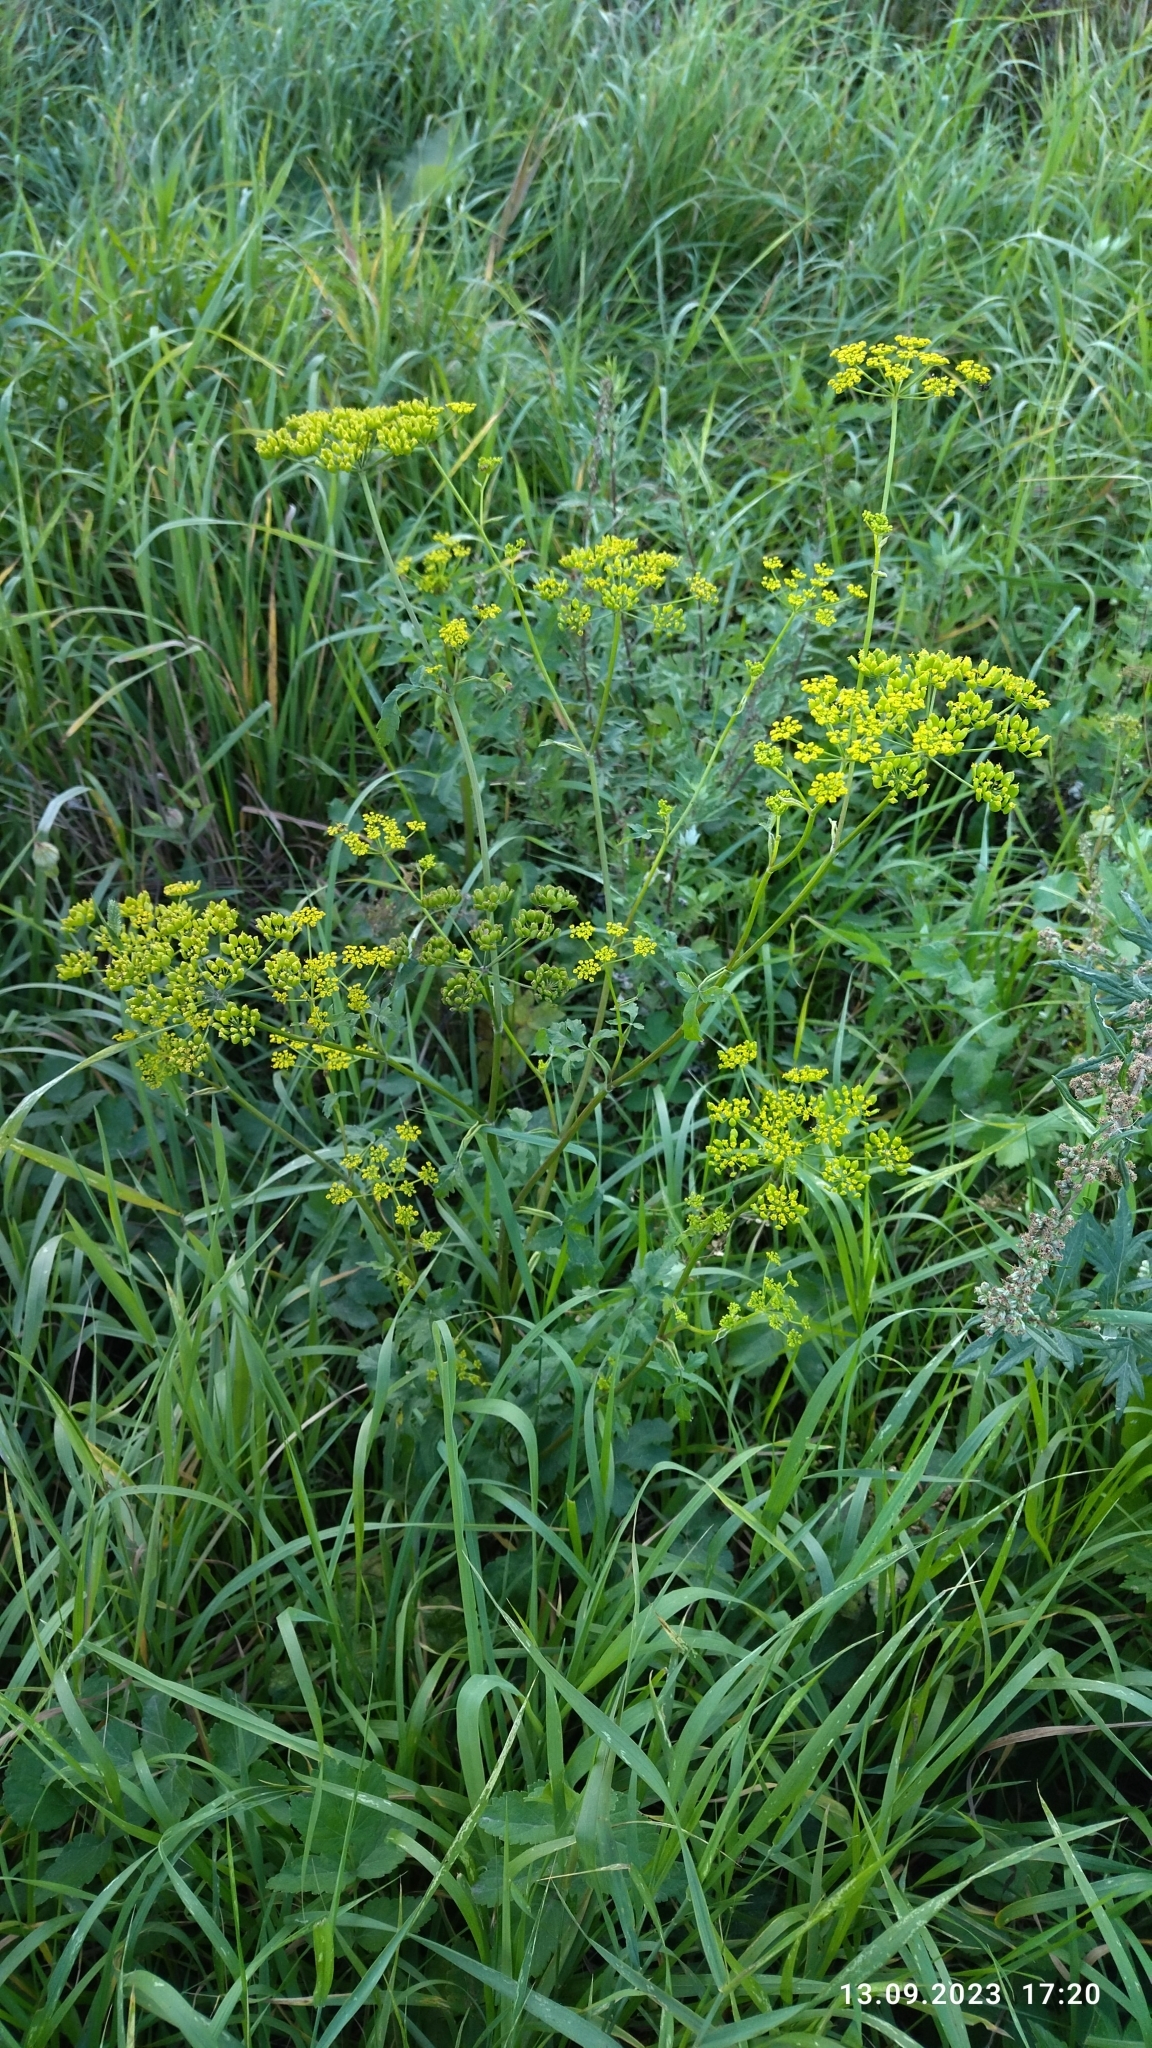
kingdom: Plantae
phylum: Tracheophyta
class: Magnoliopsida
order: Apiales
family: Apiaceae
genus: Pastinaca
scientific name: Pastinaca sativa
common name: Wild parsnip
